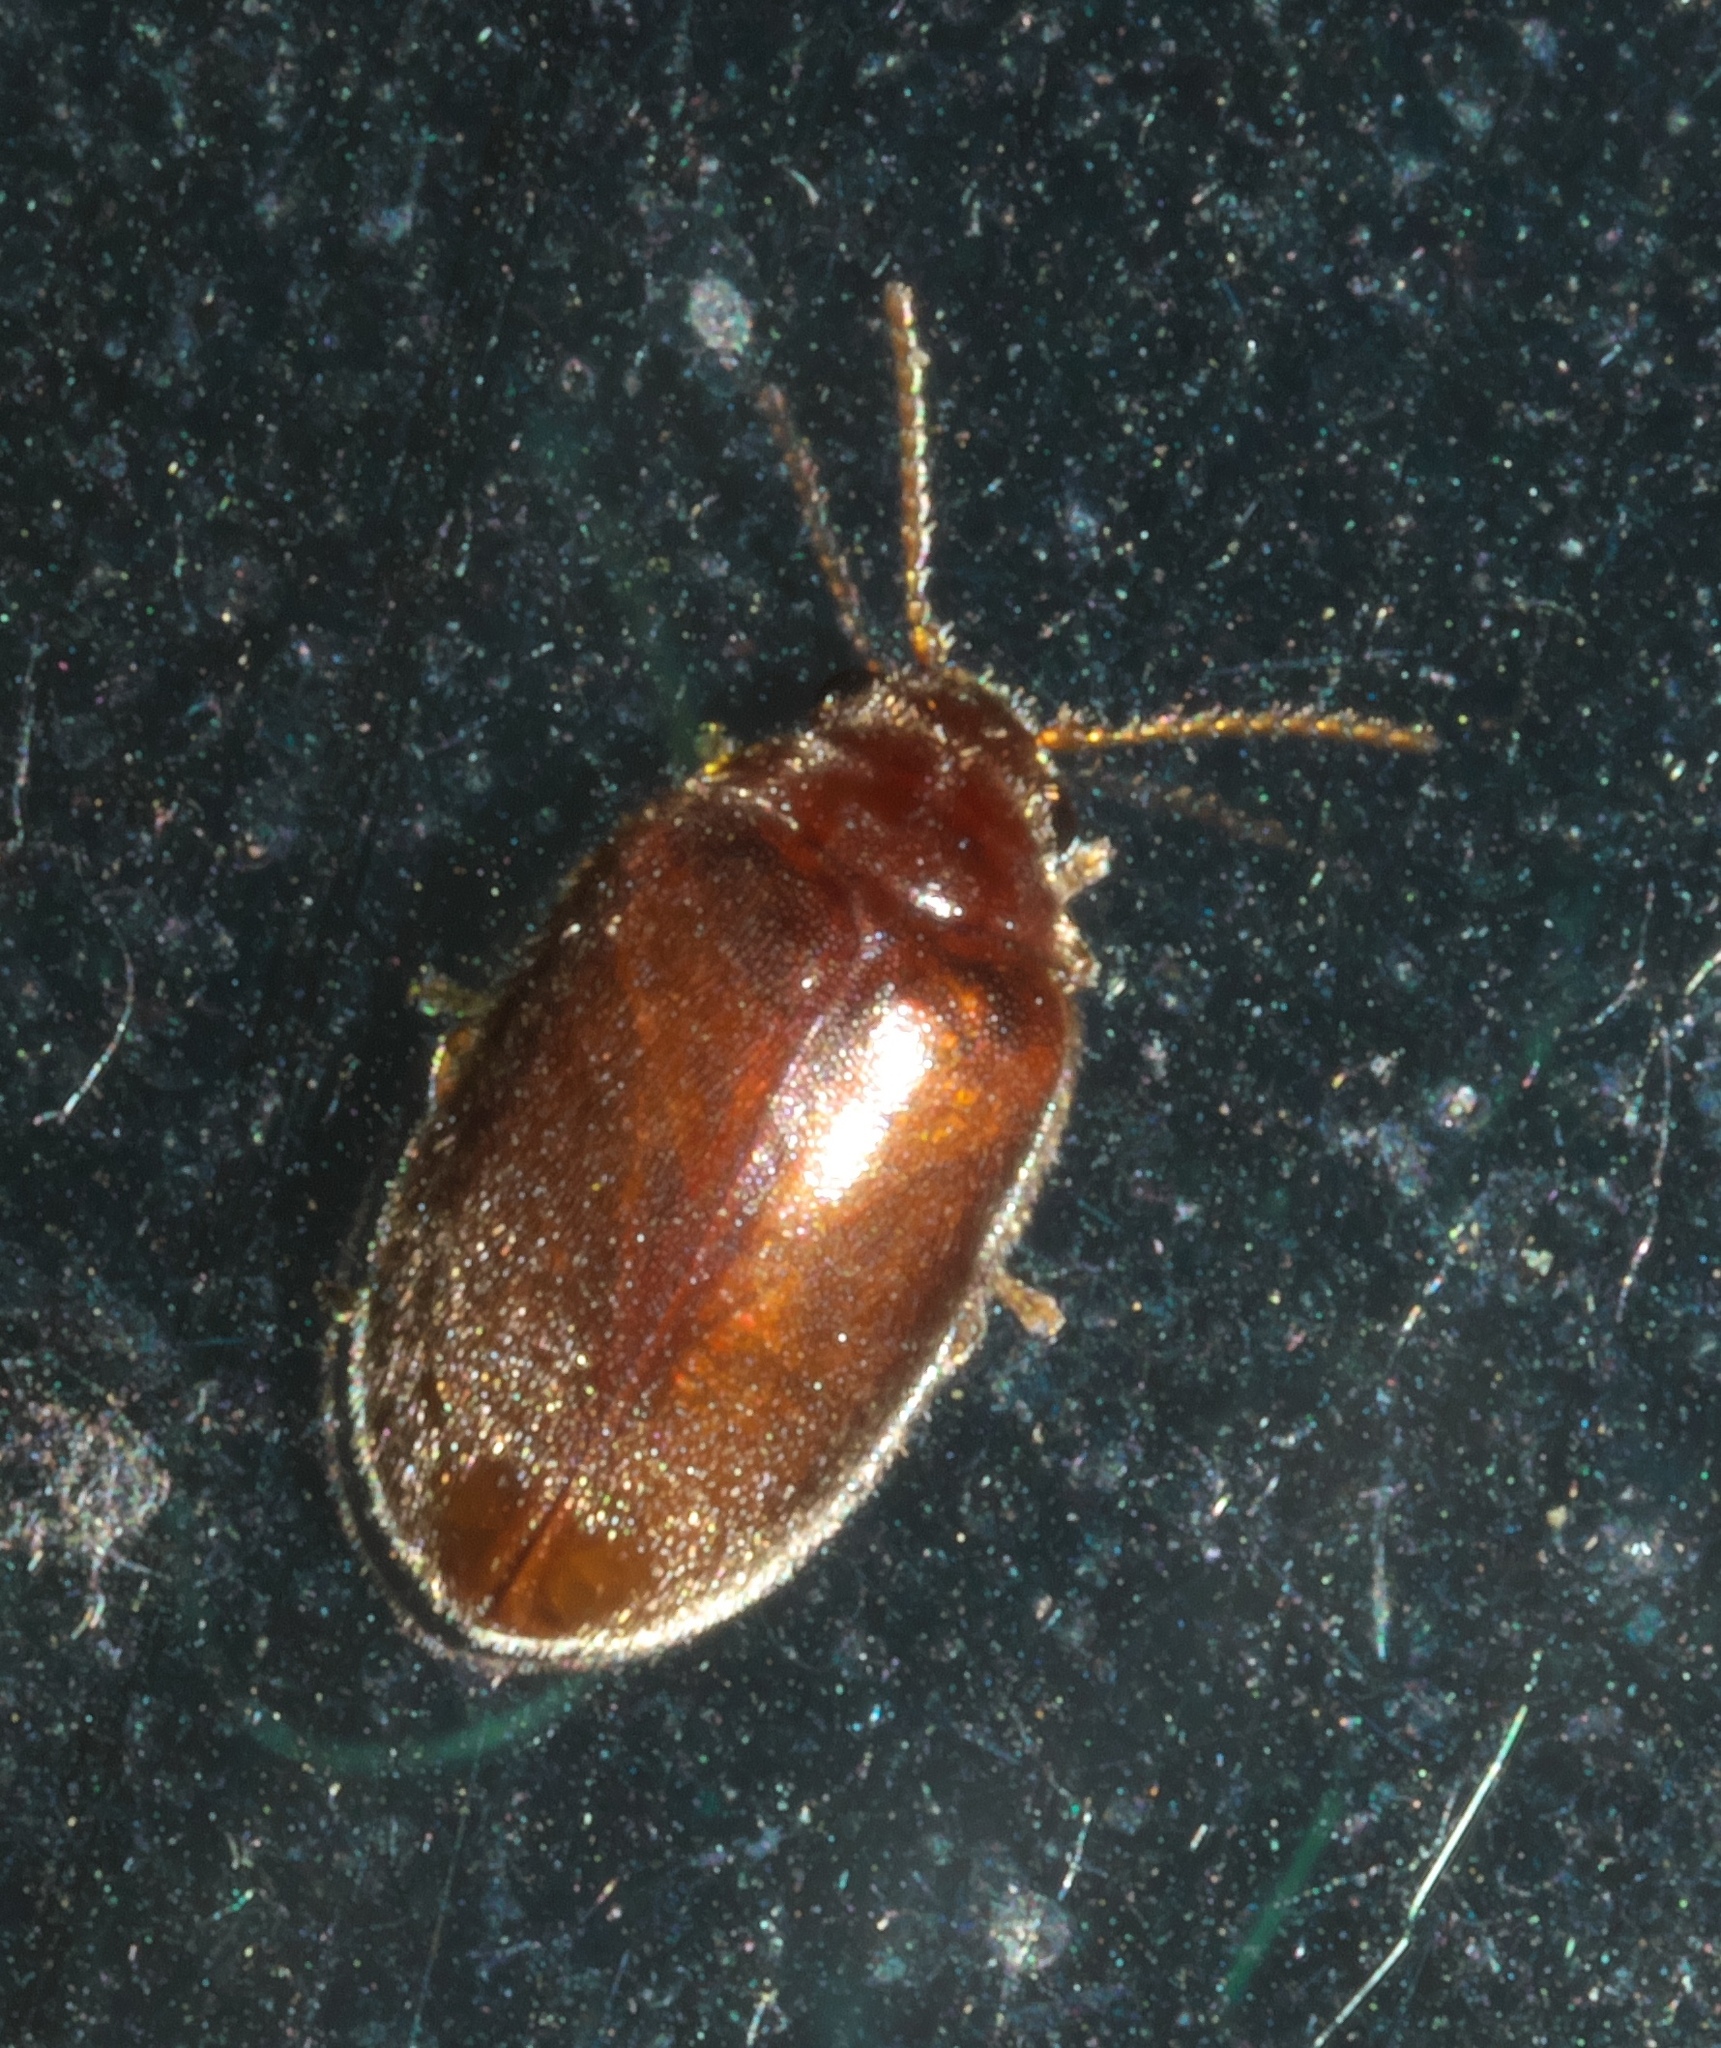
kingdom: Animalia
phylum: Arthropoda
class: Insecta
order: Coleoptera
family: Scirtidae
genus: Contacyphon
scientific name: Contacyphon
